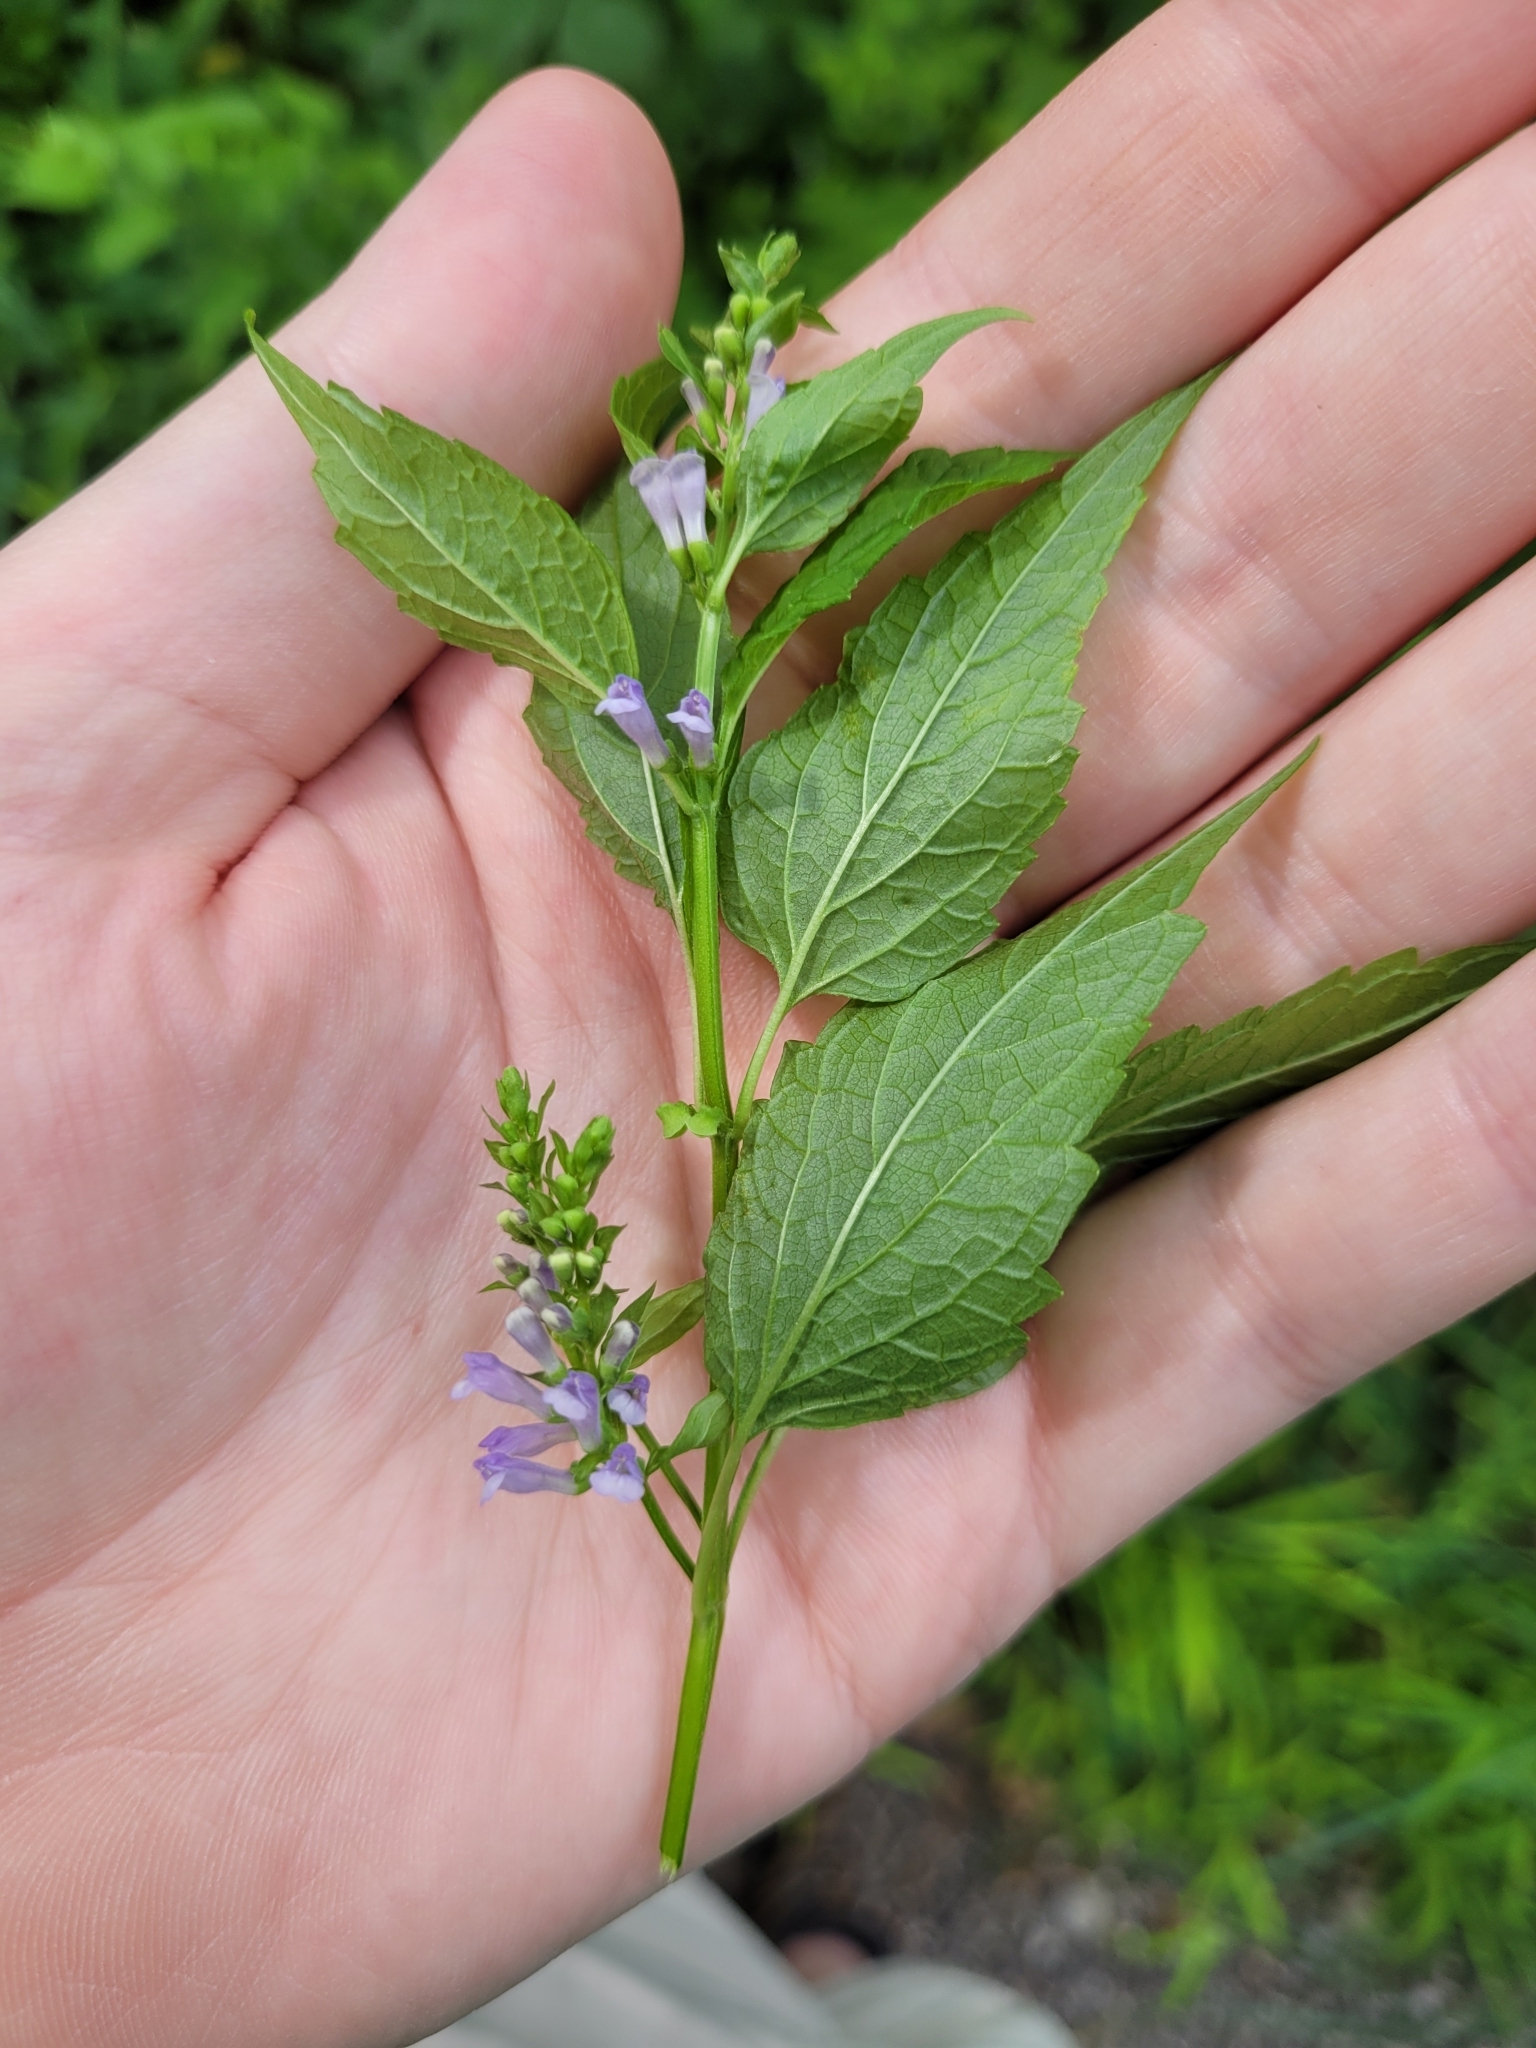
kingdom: Plantae
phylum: Tracheophyta
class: Magnoliopsida
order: Lamiales
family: Lamiaceae
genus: Scutellaria
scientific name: Scutellaria lateriflora
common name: Blue skullcap
